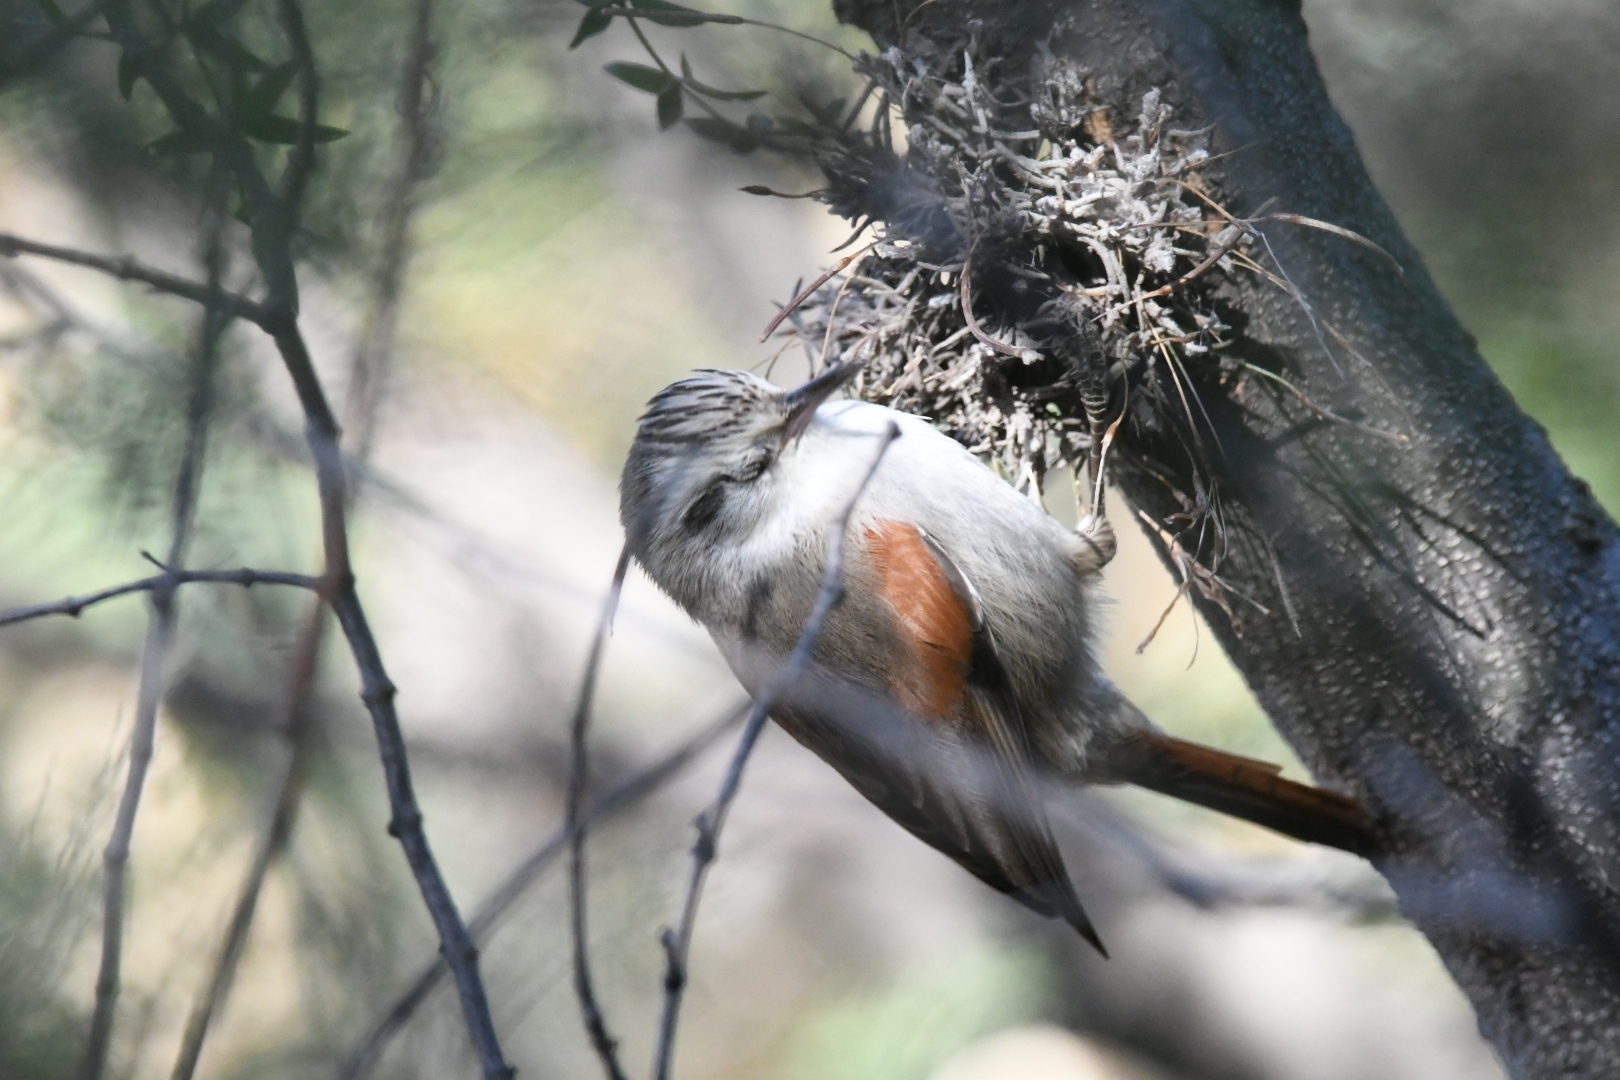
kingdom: Animalia
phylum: Chordata
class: Aves
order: Passeriformes
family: Furnariidae
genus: Cranioleuca
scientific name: Cranioleuca pyrrhophia
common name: Stripe-crowned spinetail
